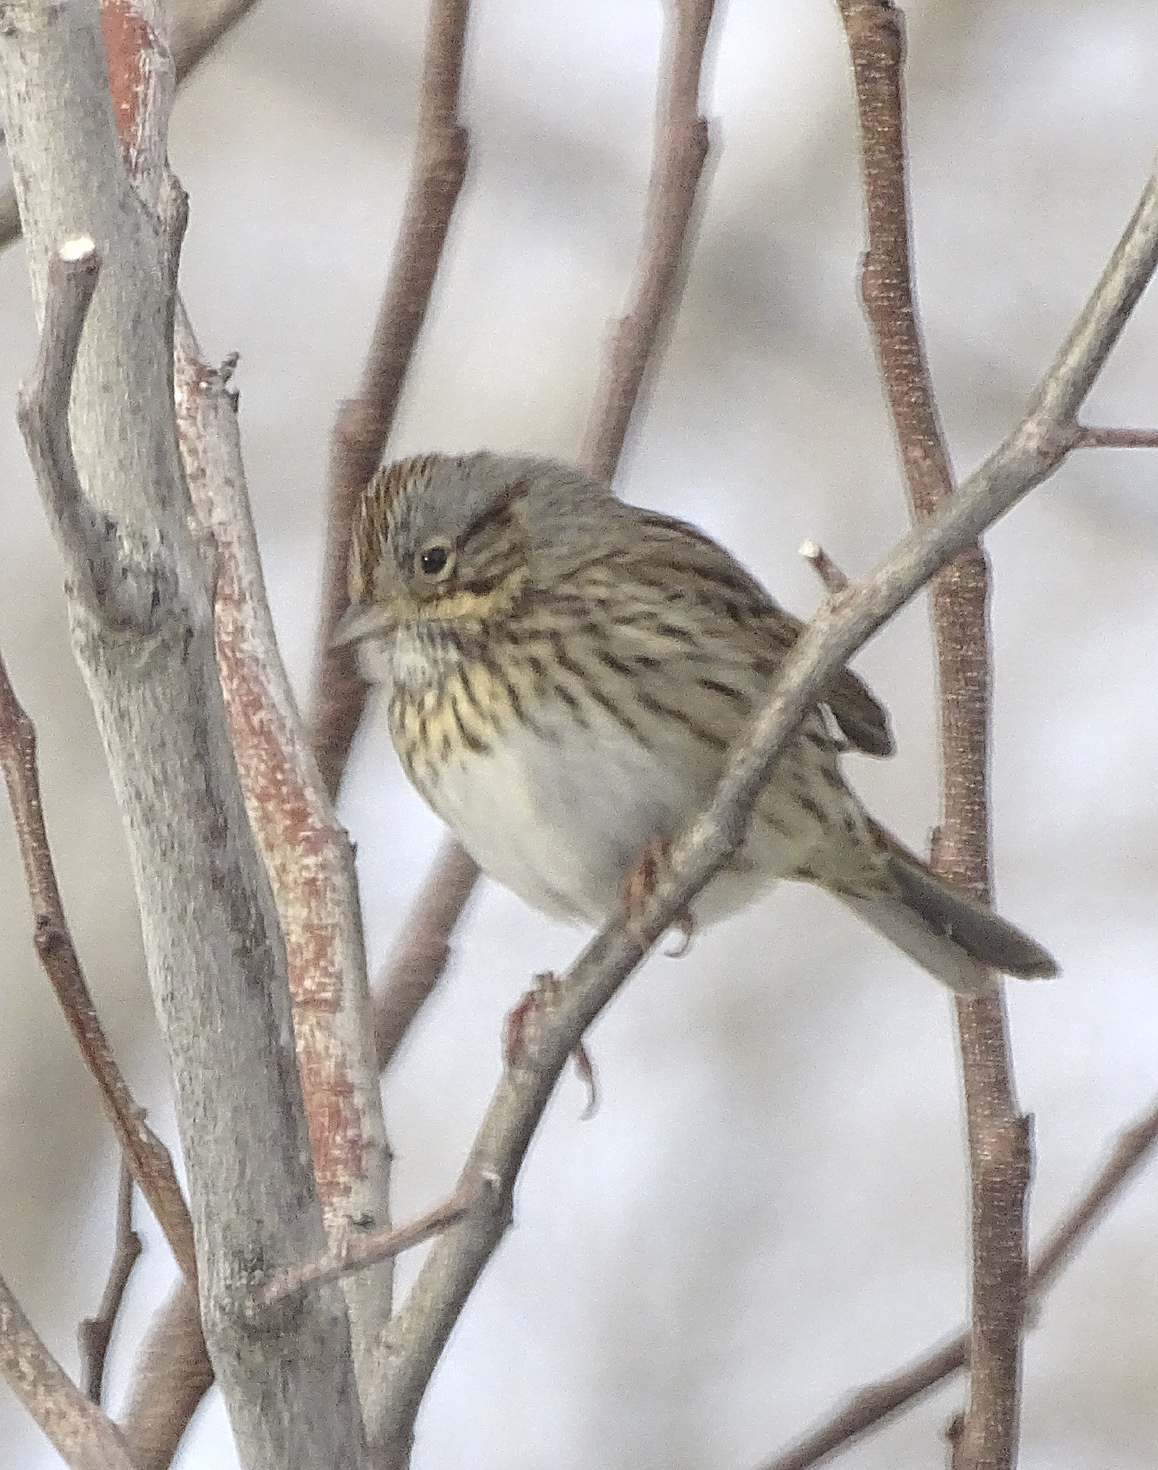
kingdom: Animalia
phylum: Chordata
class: Aves
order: Passeriformes
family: Passerellidae
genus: Melospiza
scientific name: Melospiza lincolnii
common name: Lincoln's sparrow
